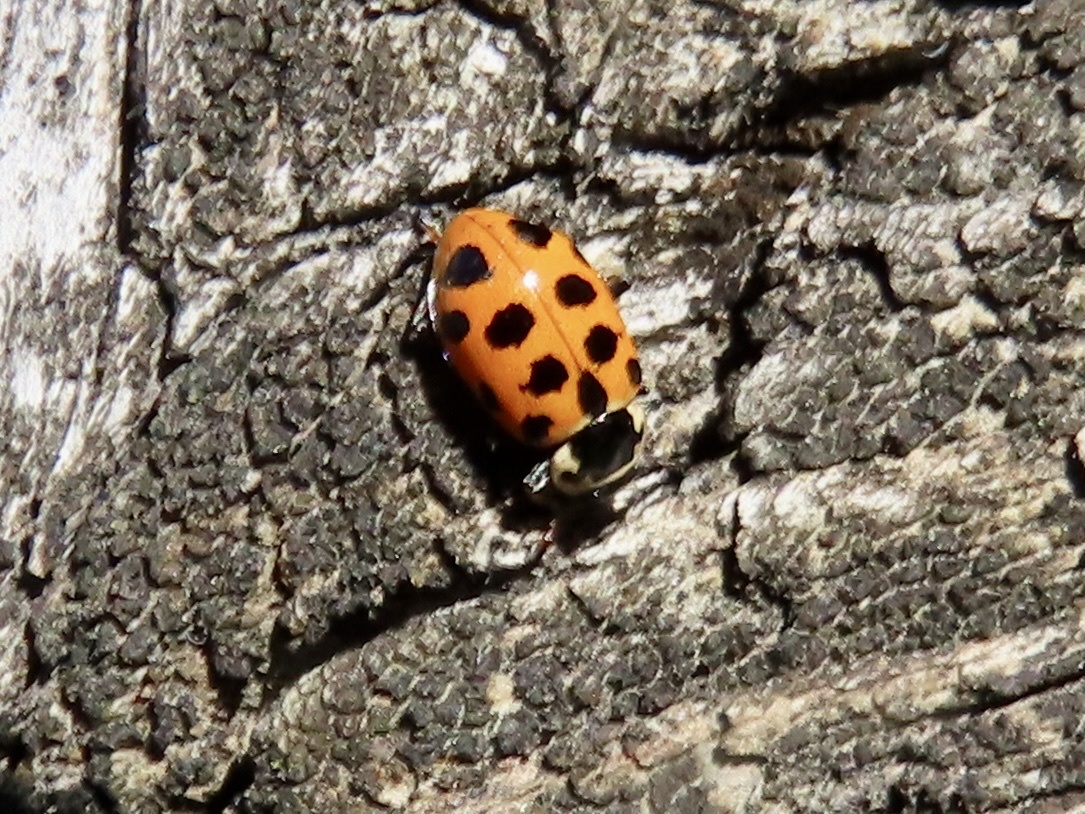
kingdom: Animalia
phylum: Arthropoda
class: Insecta
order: Coleoptera
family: Coccinellidae
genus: Hippodamia
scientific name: Hippodamia tredecimpunctata
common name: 13-spot ladybird
